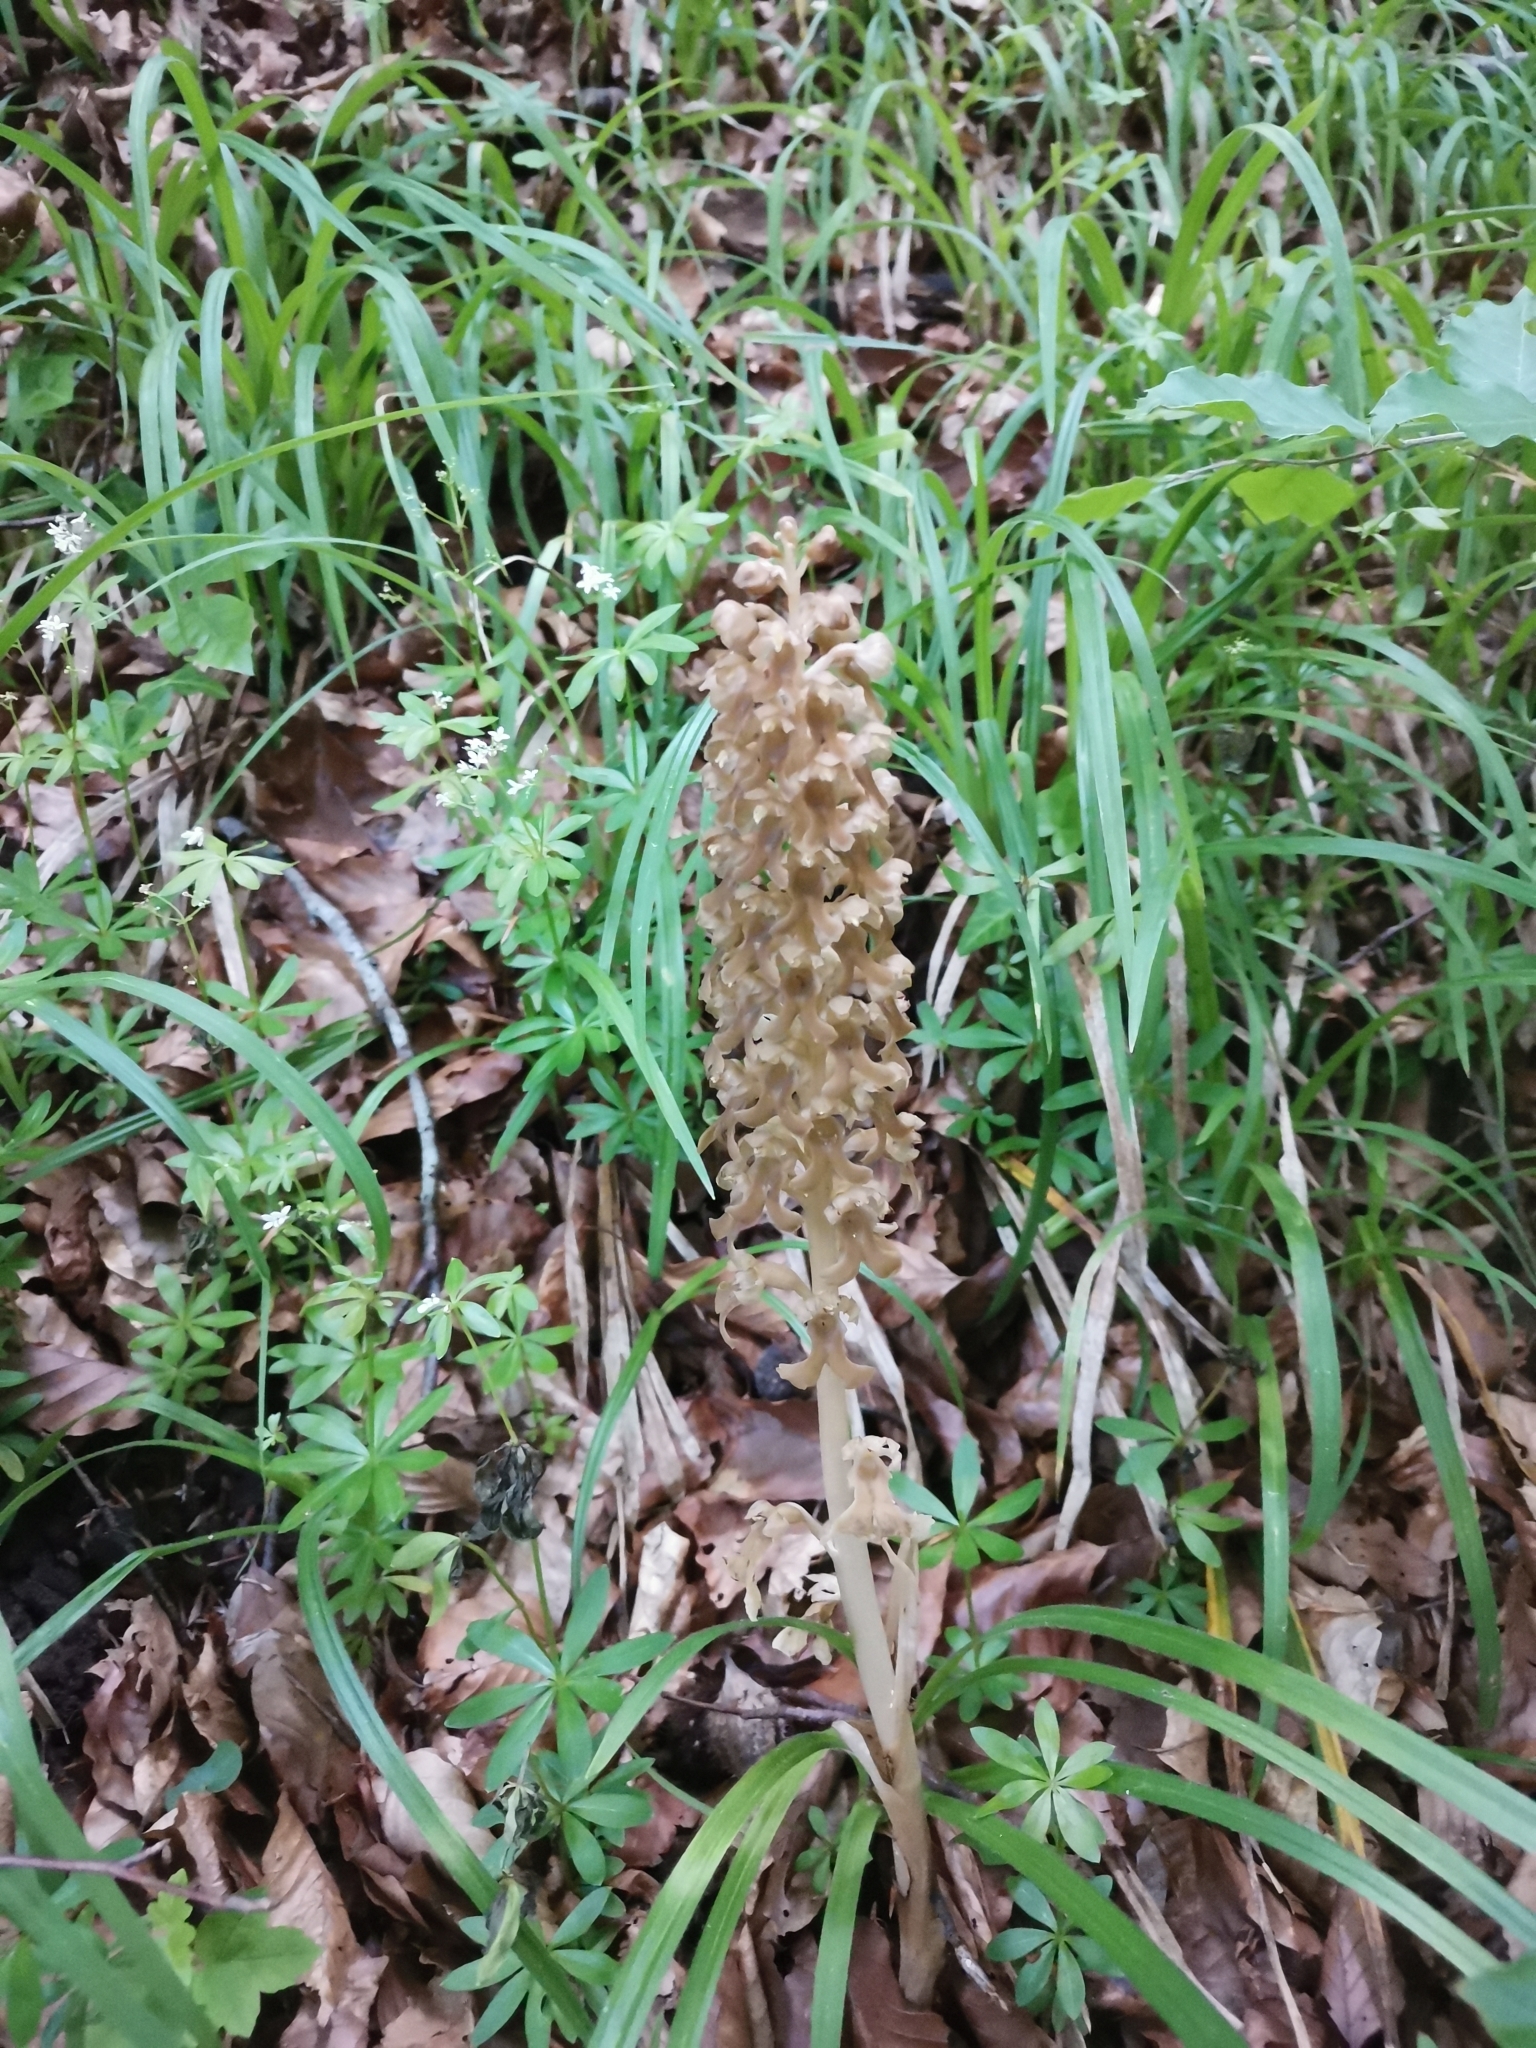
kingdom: Plantae
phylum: Tracheophyta
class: Liliopsida
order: Asparagales
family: Orchidaceae
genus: Neottia
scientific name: Neottia nidus-avis
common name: Bird's-nest orchid
